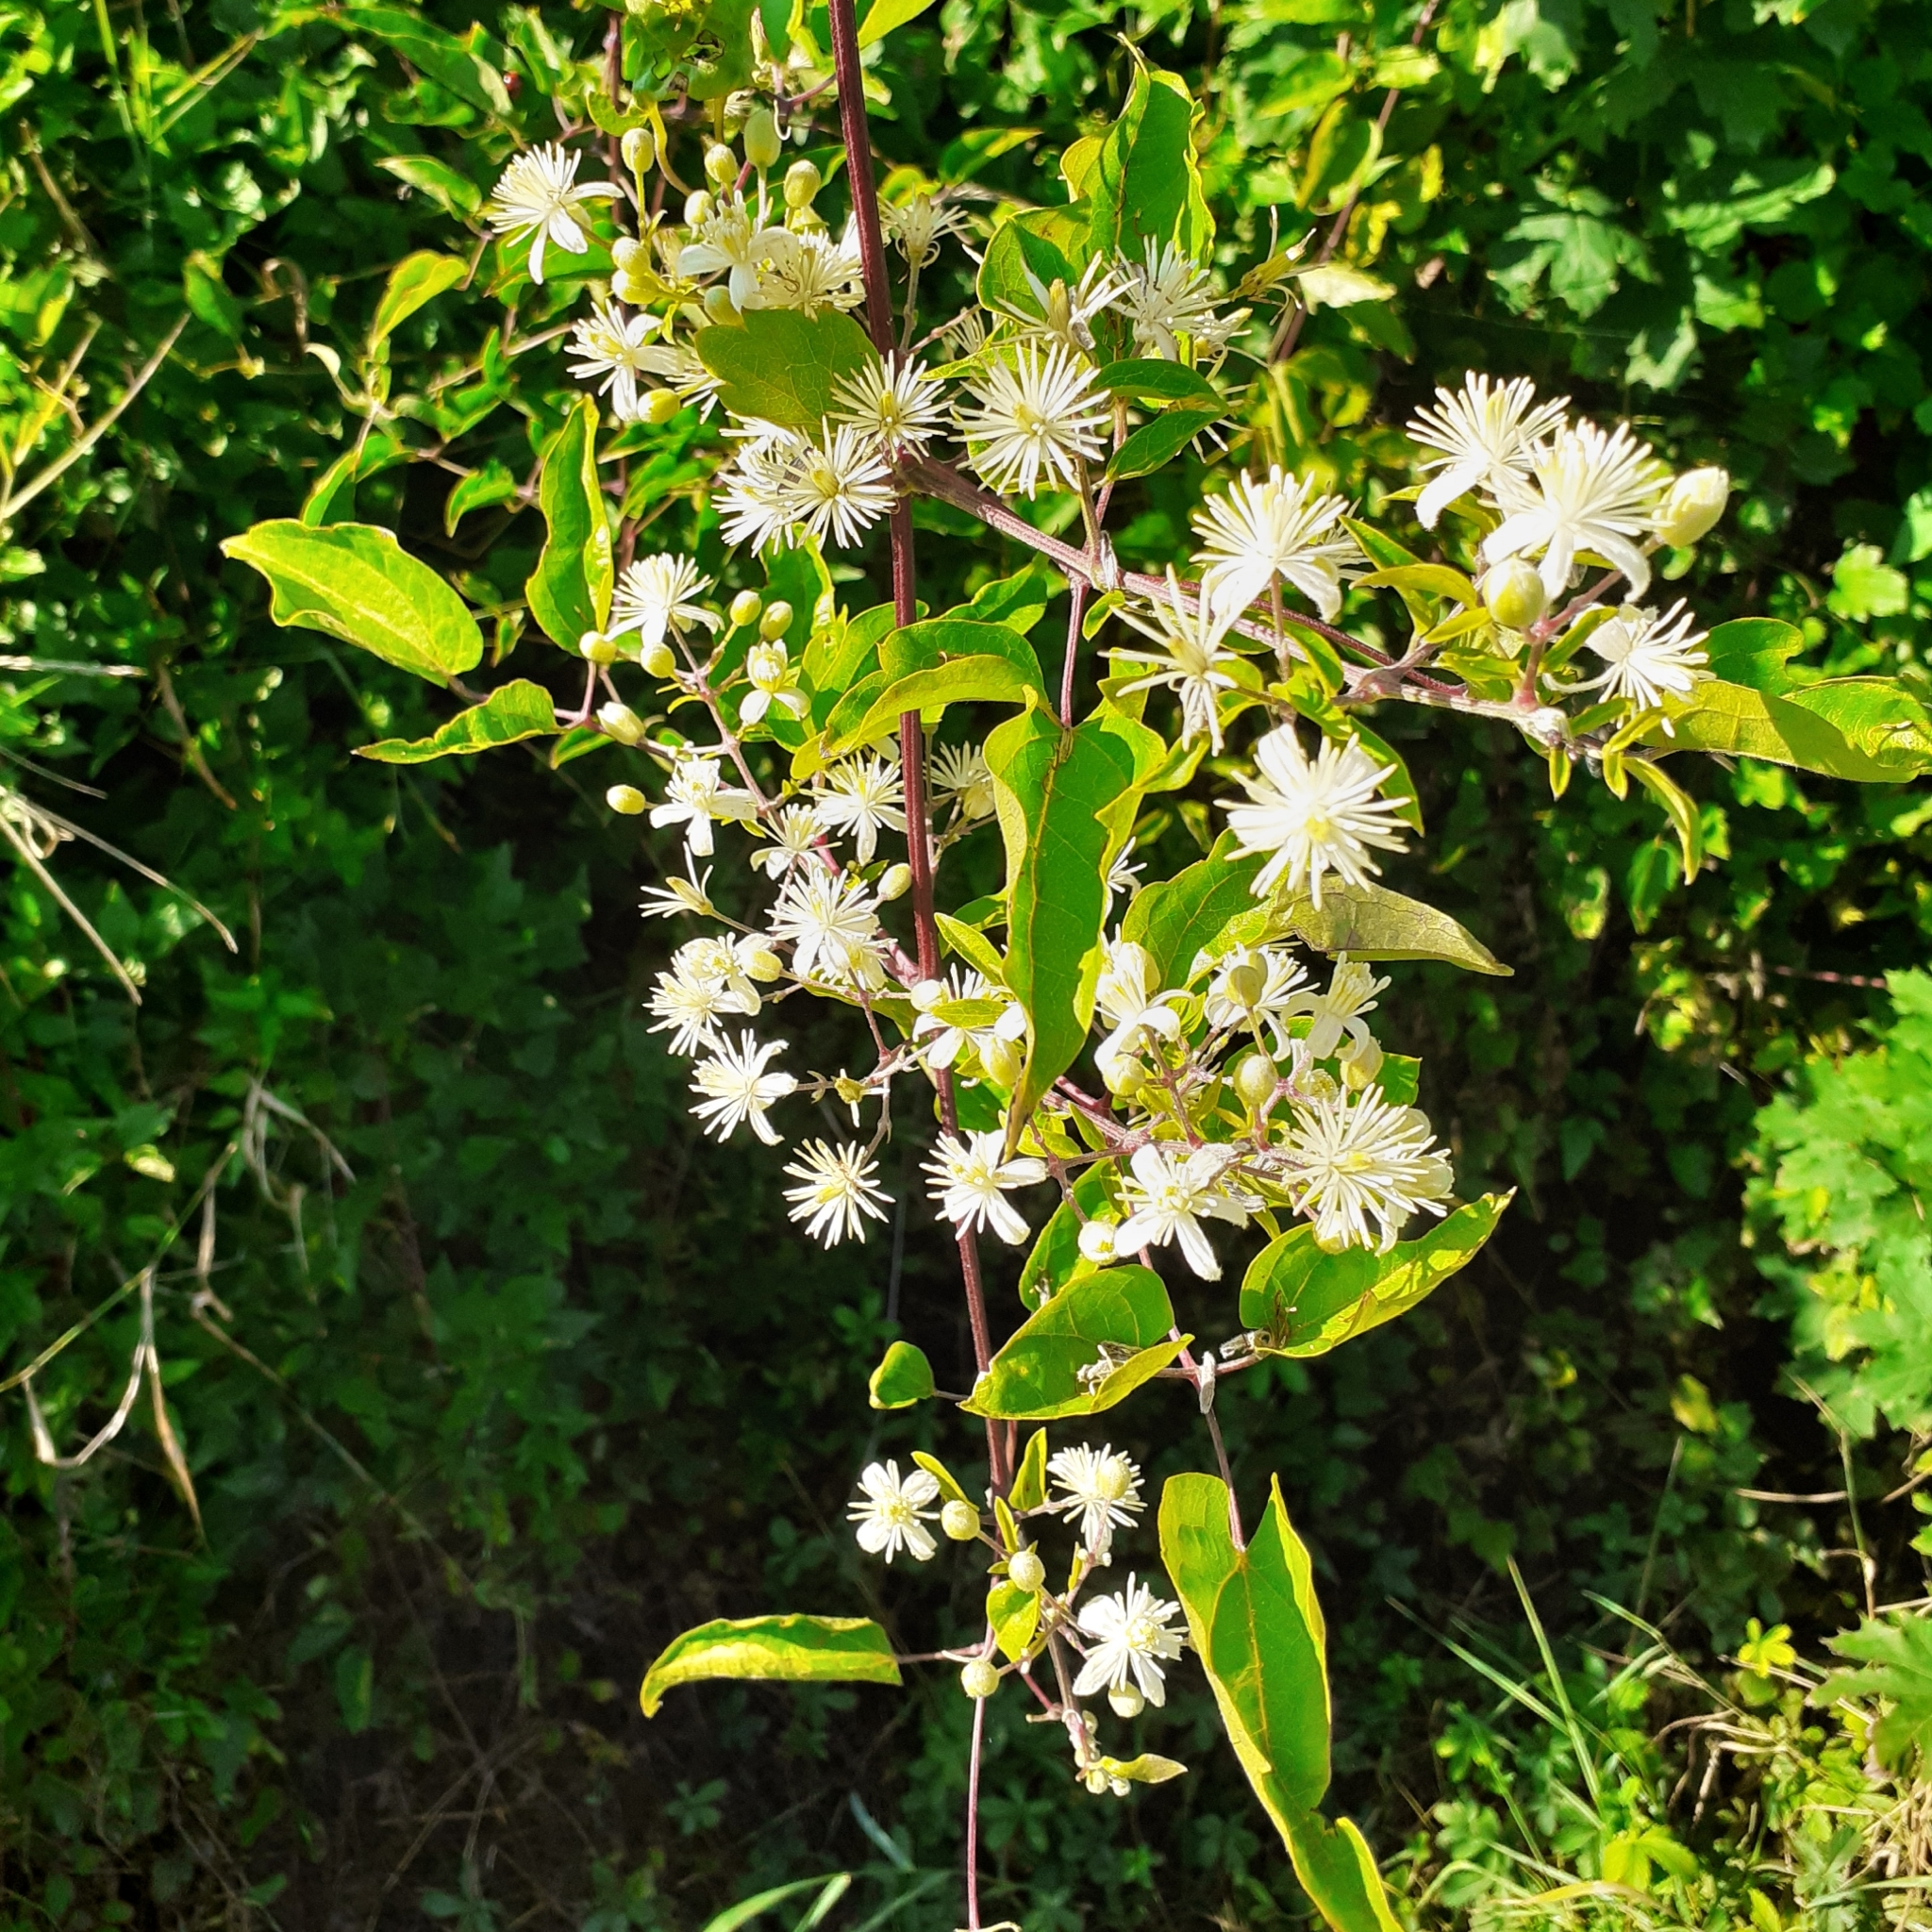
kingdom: Plantae
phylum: Tracheophyta
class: Magnoliopsida
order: Ranunculales
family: Ranunculaceae
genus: Clematis
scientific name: Clematis vitalba
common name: Evergreen clematis
